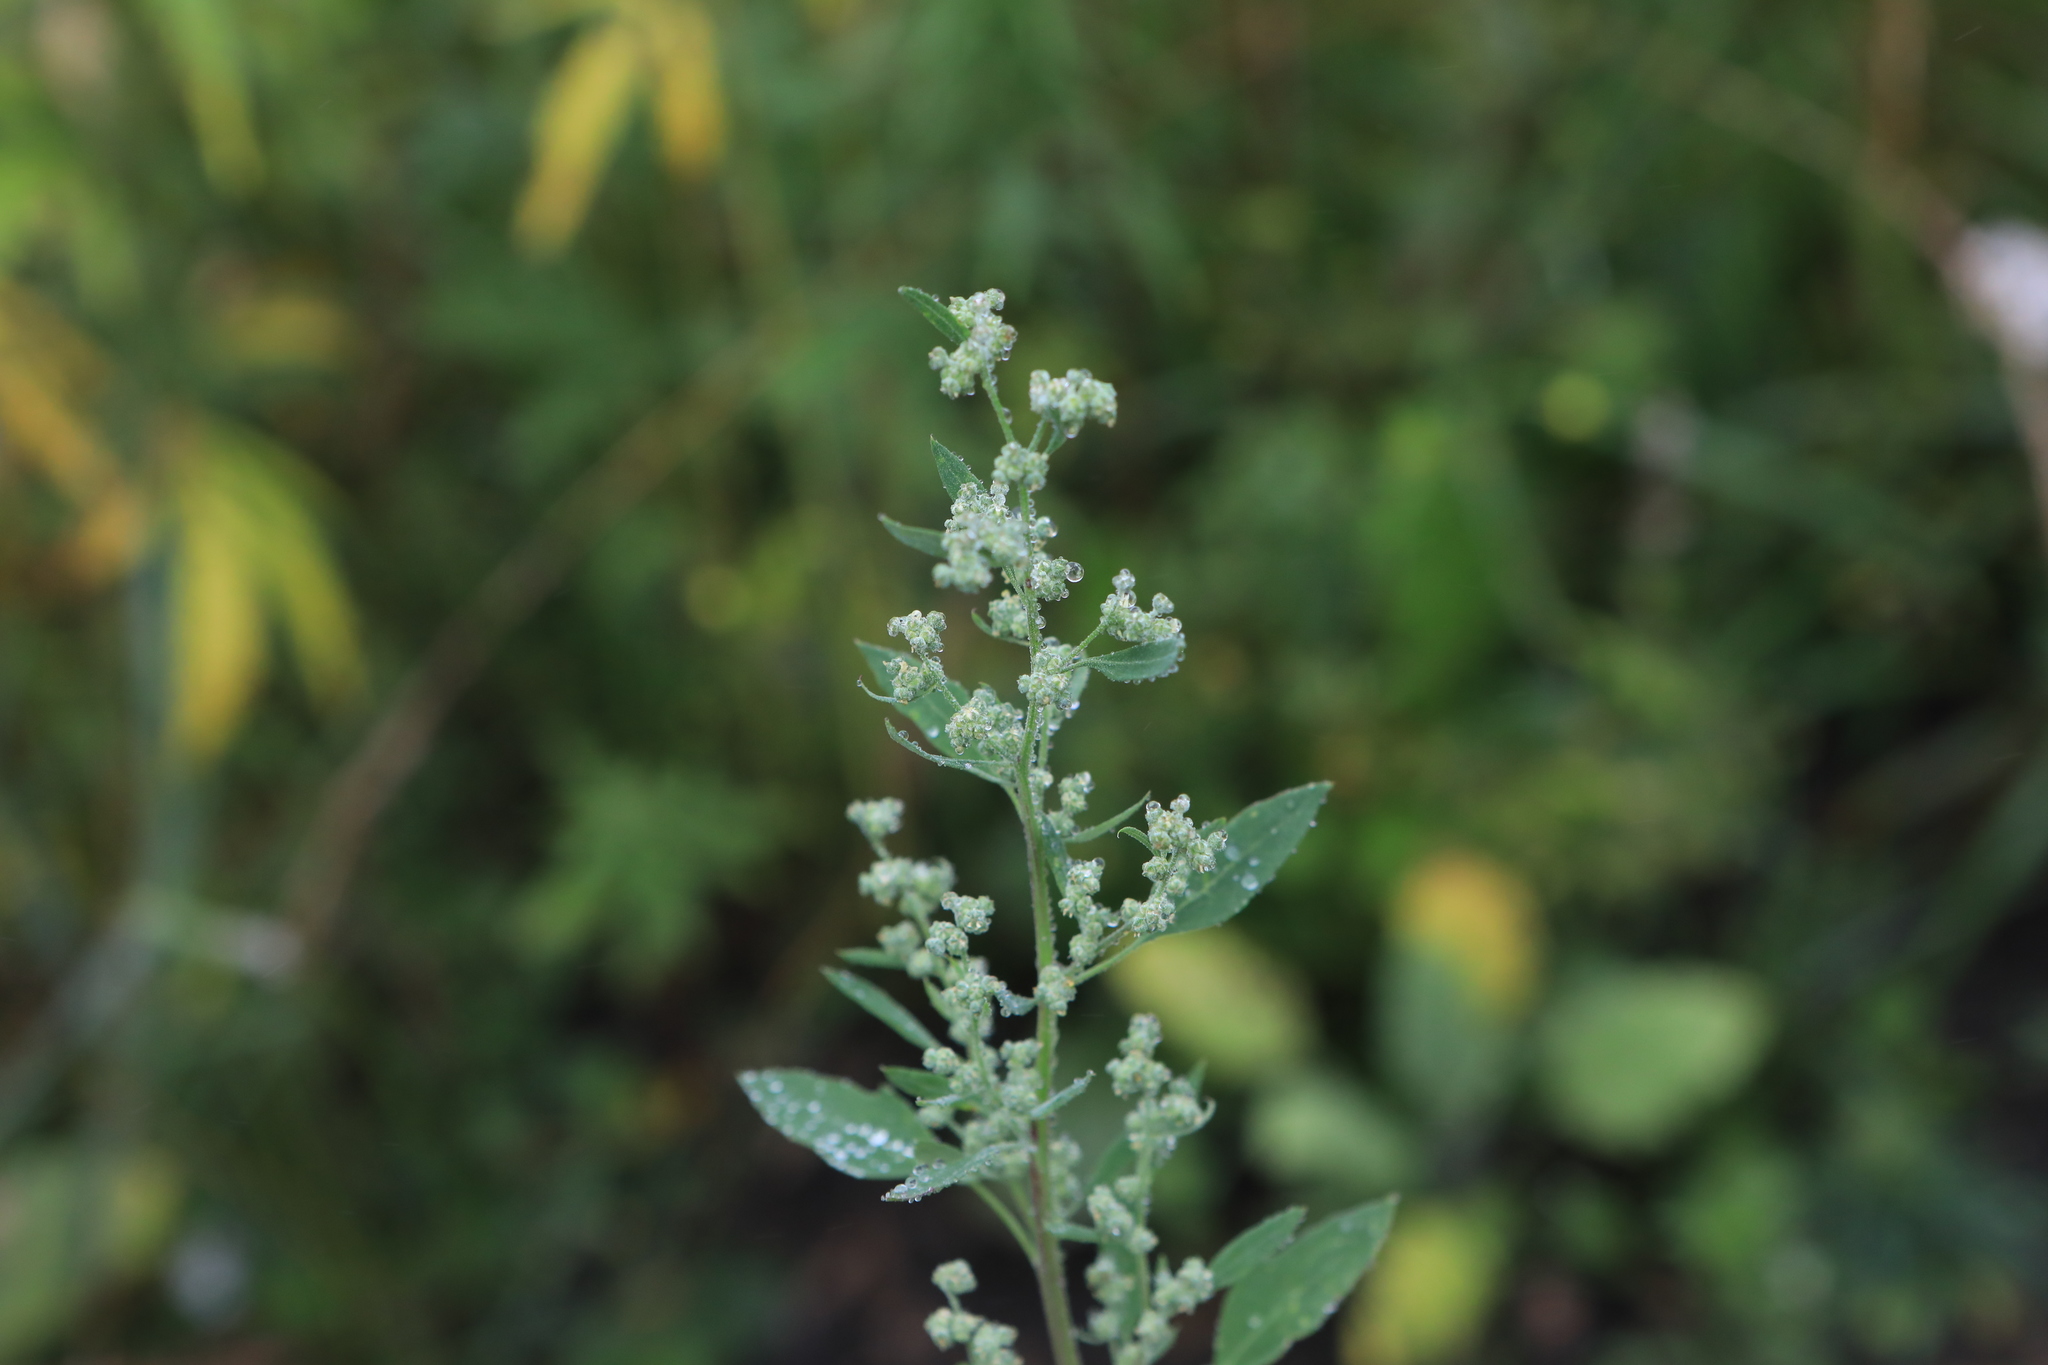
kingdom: Plantae
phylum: Tracheophyta
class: Magnoliopsida
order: Caryophyllales
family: Amaranthaceae
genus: Chenopodium
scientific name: Chenopodium album
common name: Fat-hen
